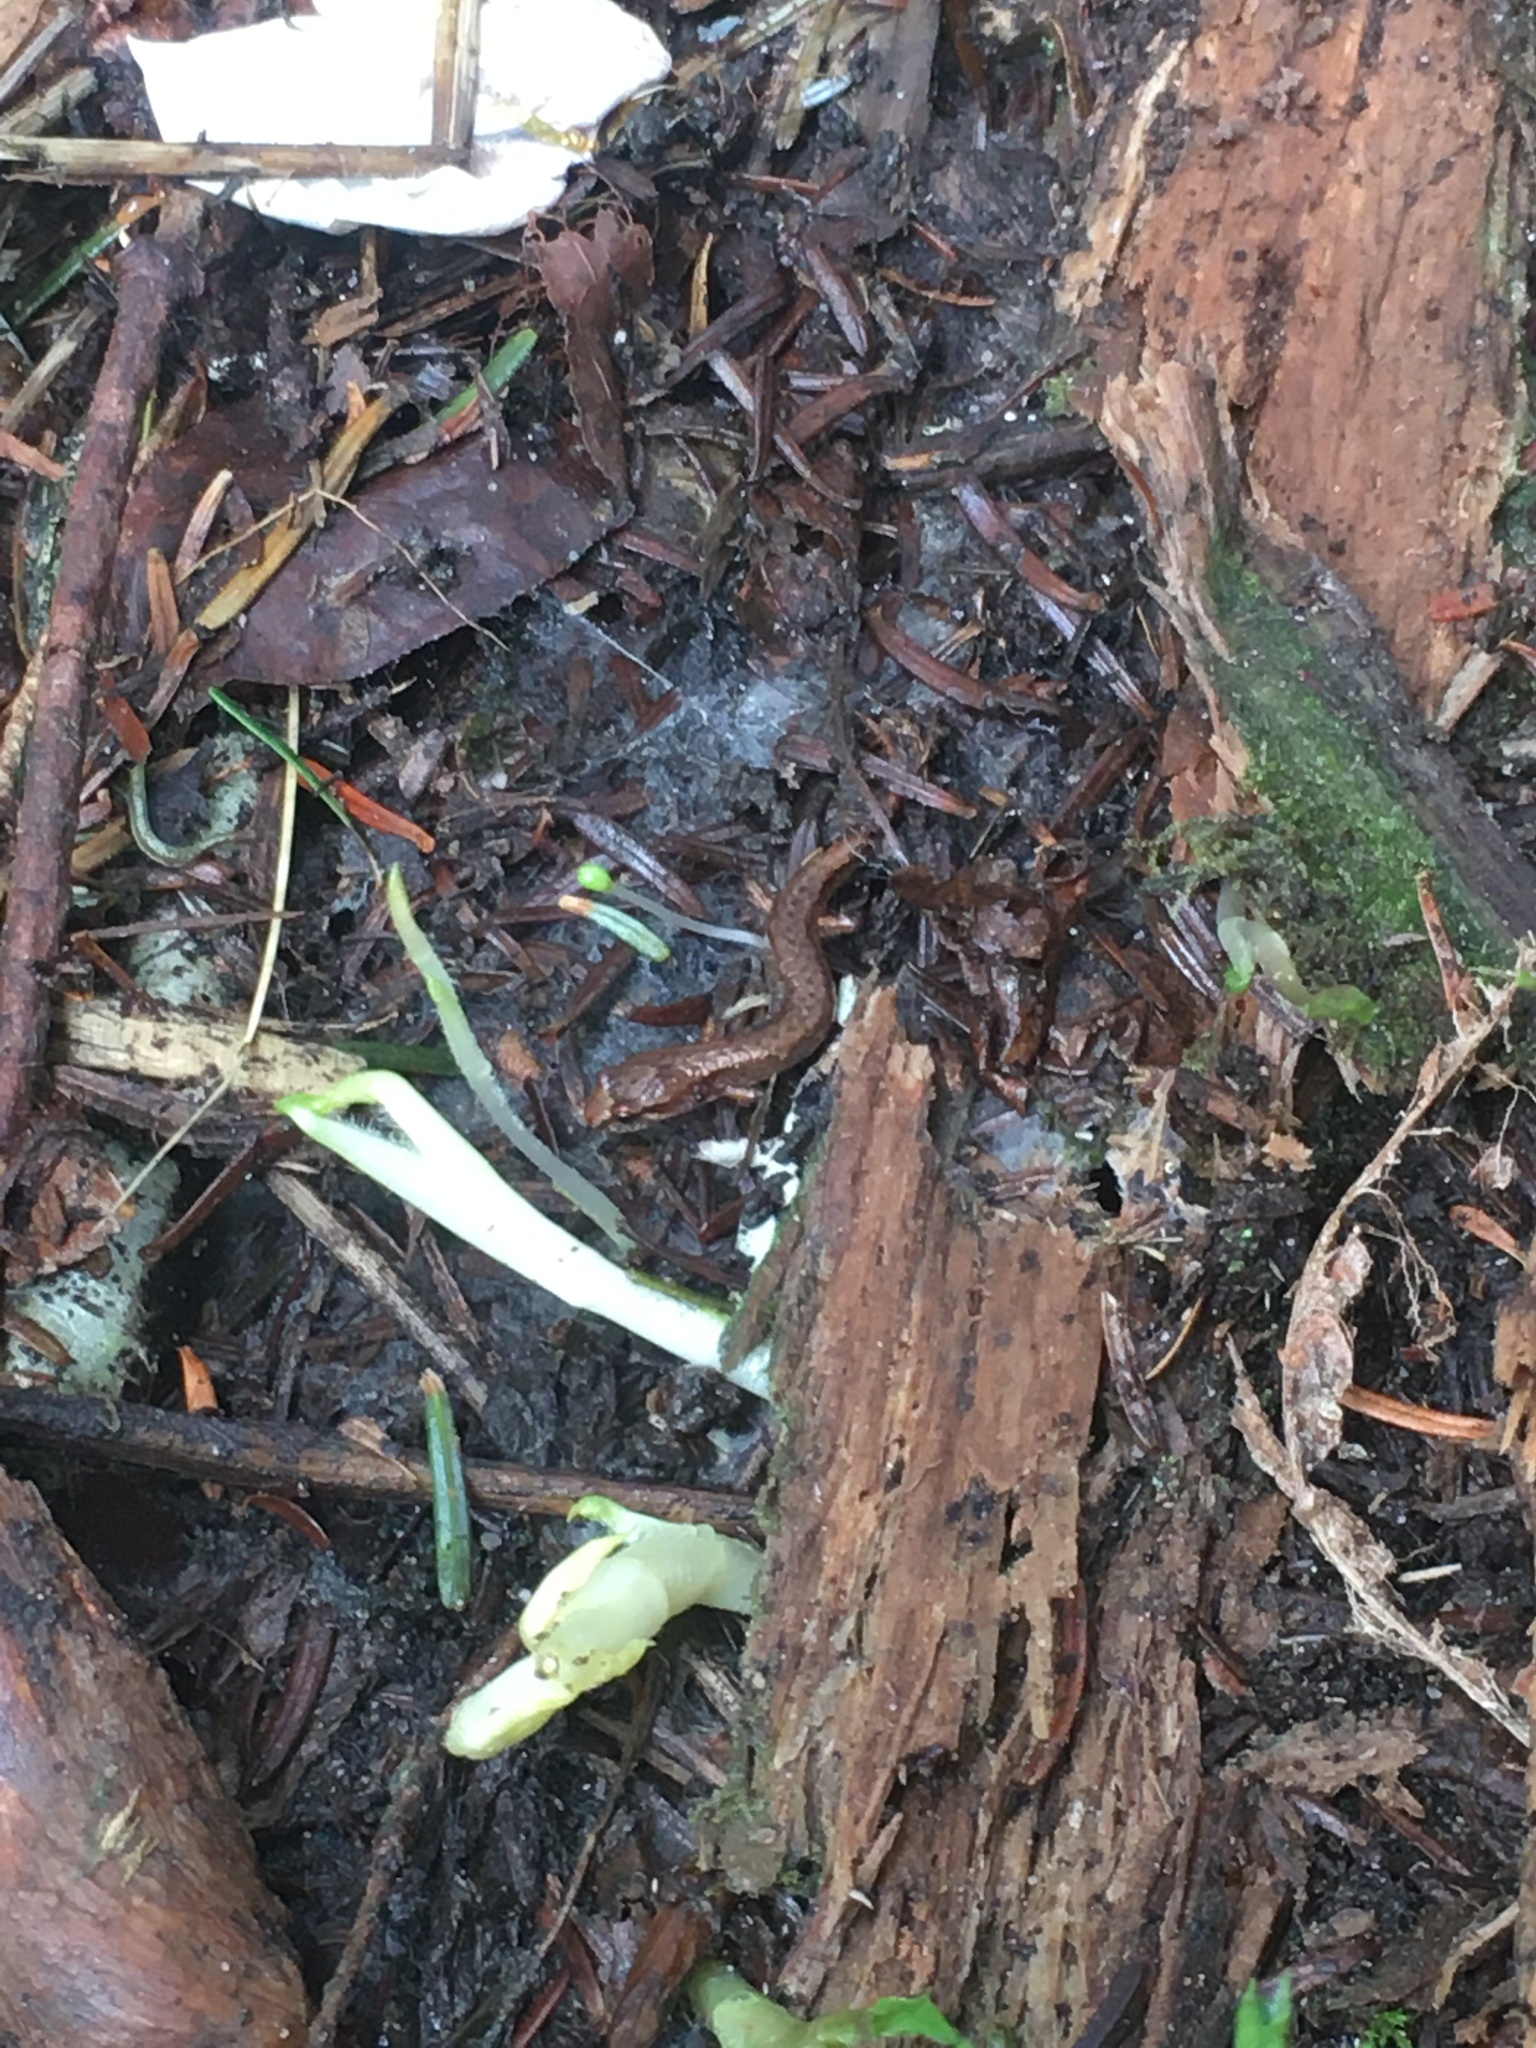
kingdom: Animalia
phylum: Chordata
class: Amphibia
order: Caudata
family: Plethodontidae
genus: Desmognathus
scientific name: Desmognathus wrighti
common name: Pygmy salamander
